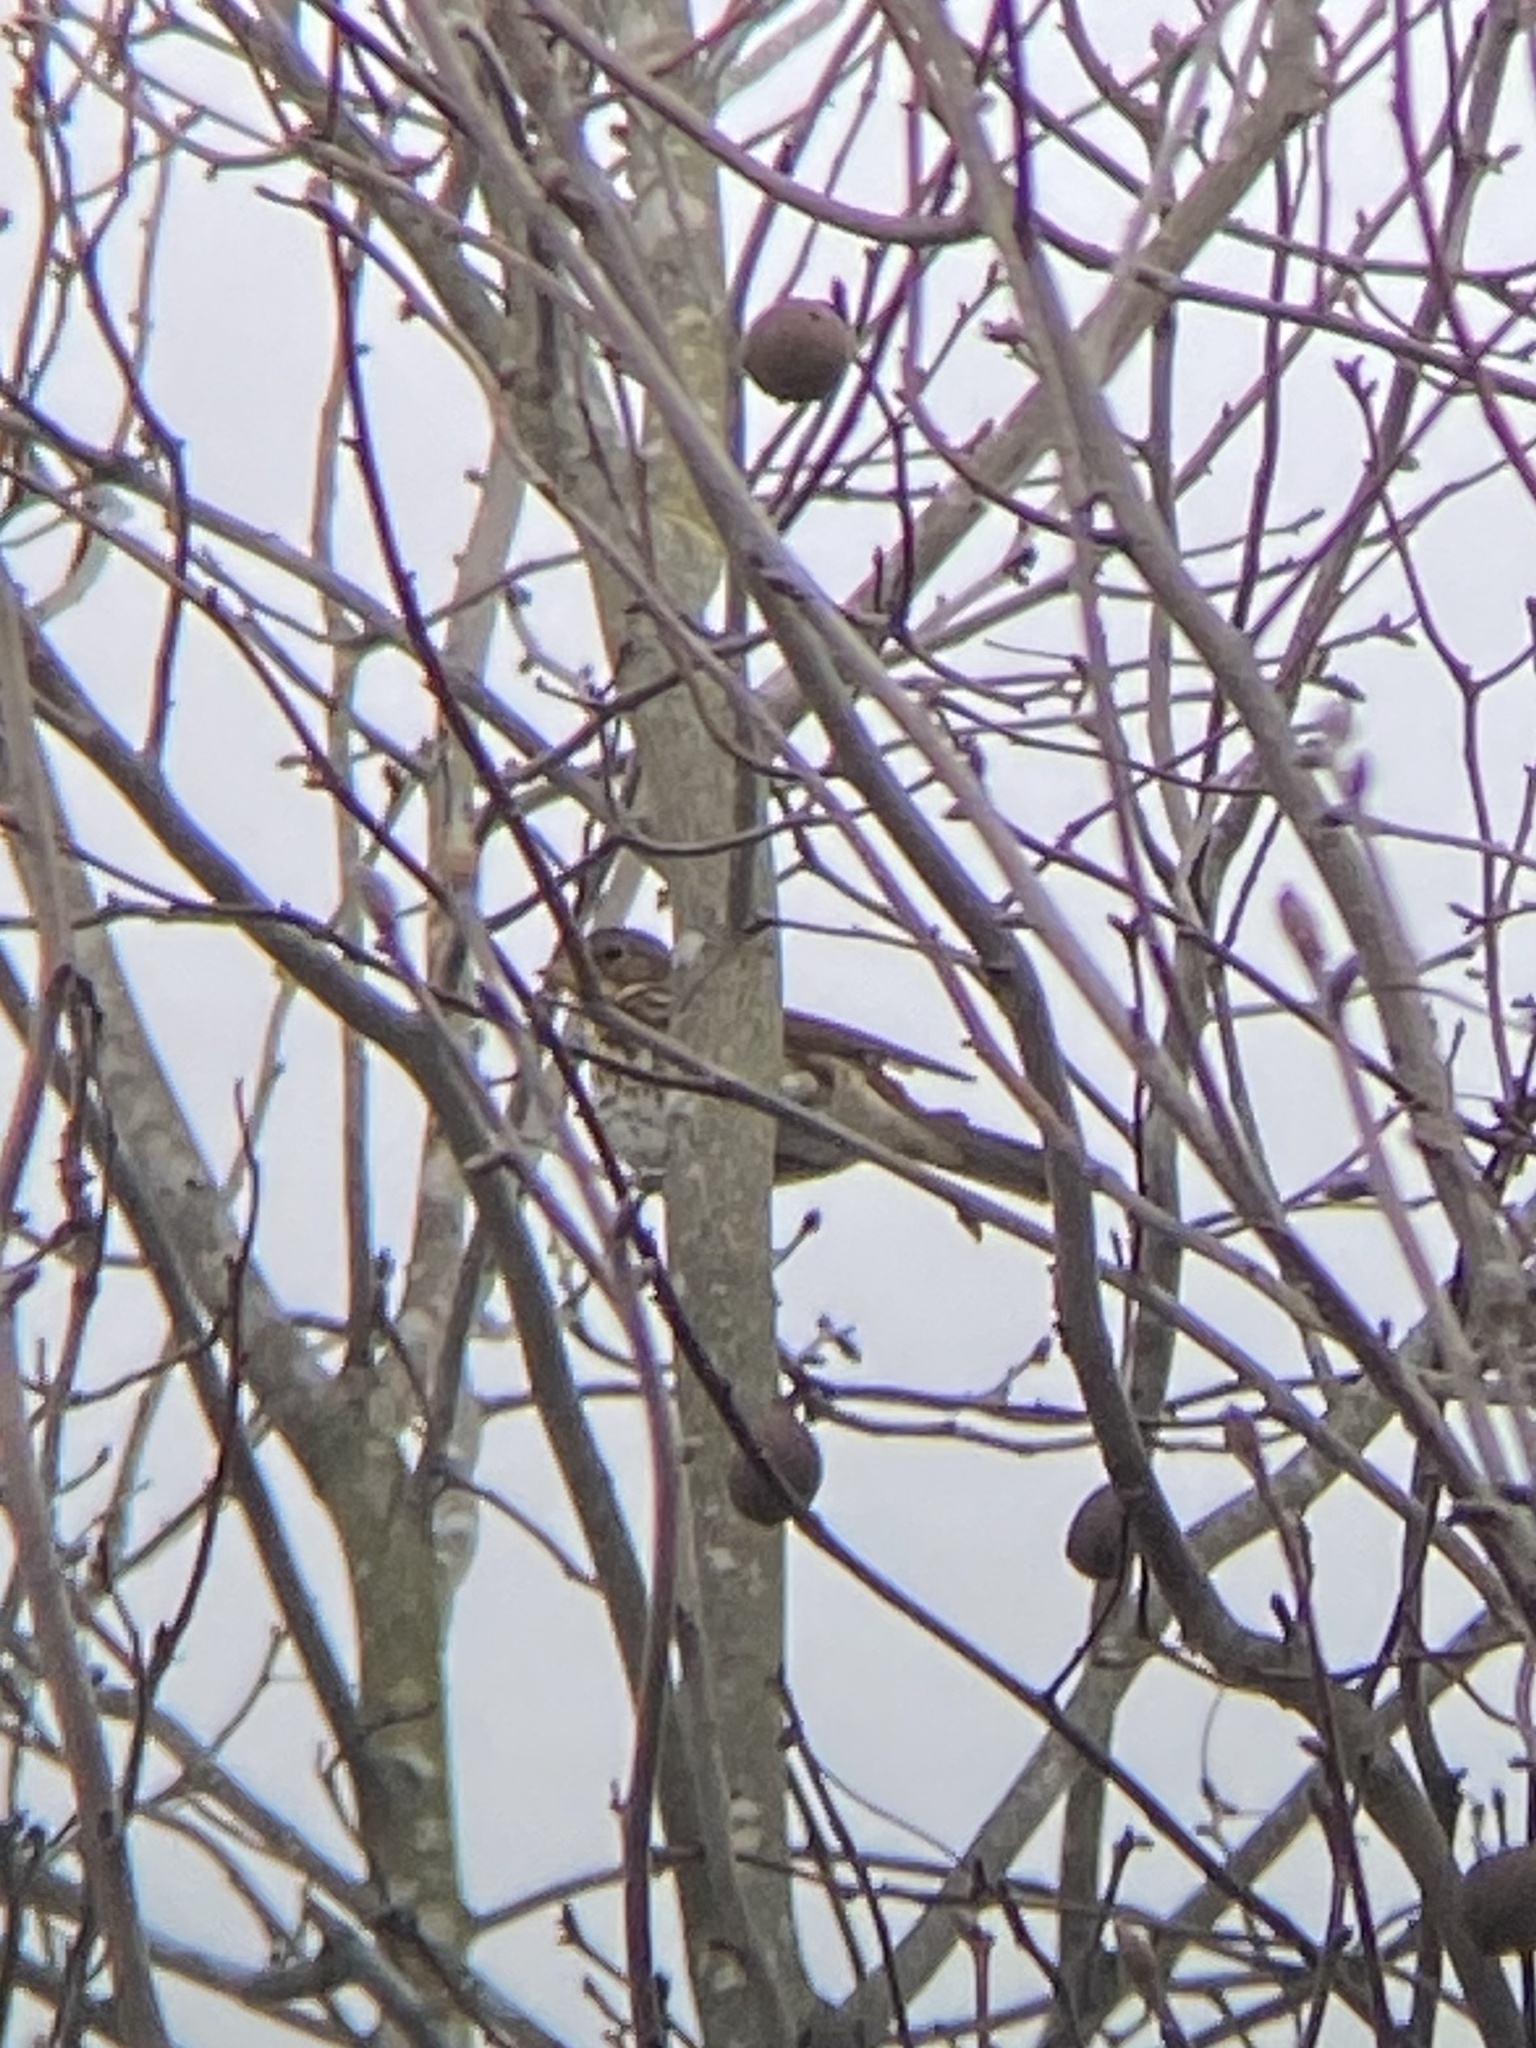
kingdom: Animalia
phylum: Chordata
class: Aves
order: Passeriformes
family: Passerellidae
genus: Passerella
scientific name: Passerella iliaca
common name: Fox sparrow
